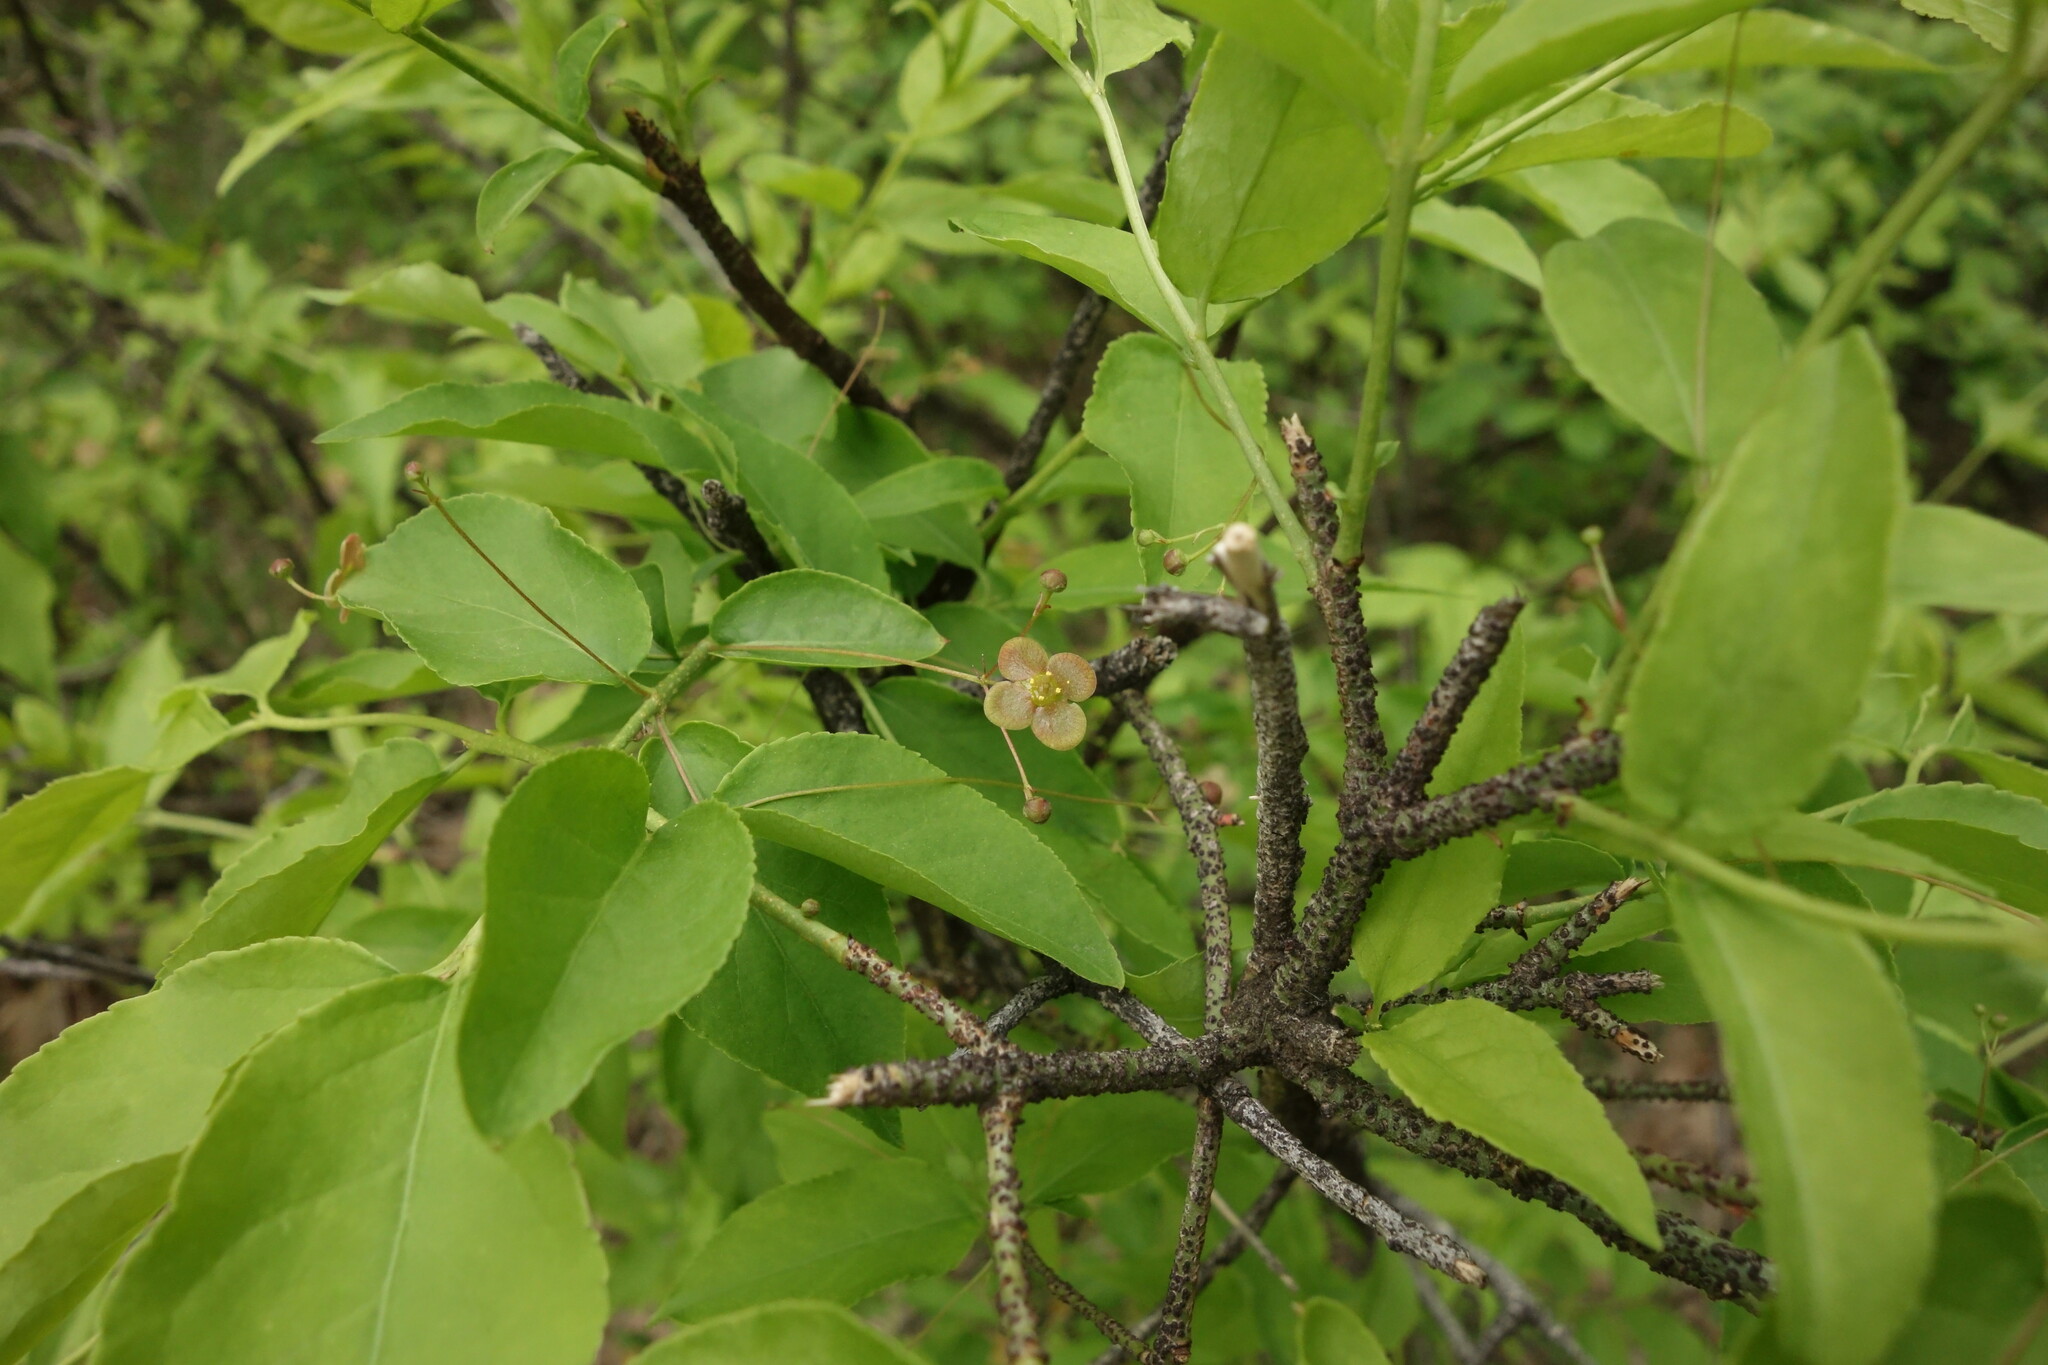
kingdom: Plantae
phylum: Tracheophyta
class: Magnoliopsida
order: Celastrales
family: Celastraceae
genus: Euonymus
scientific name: Euonymus verrucosus
